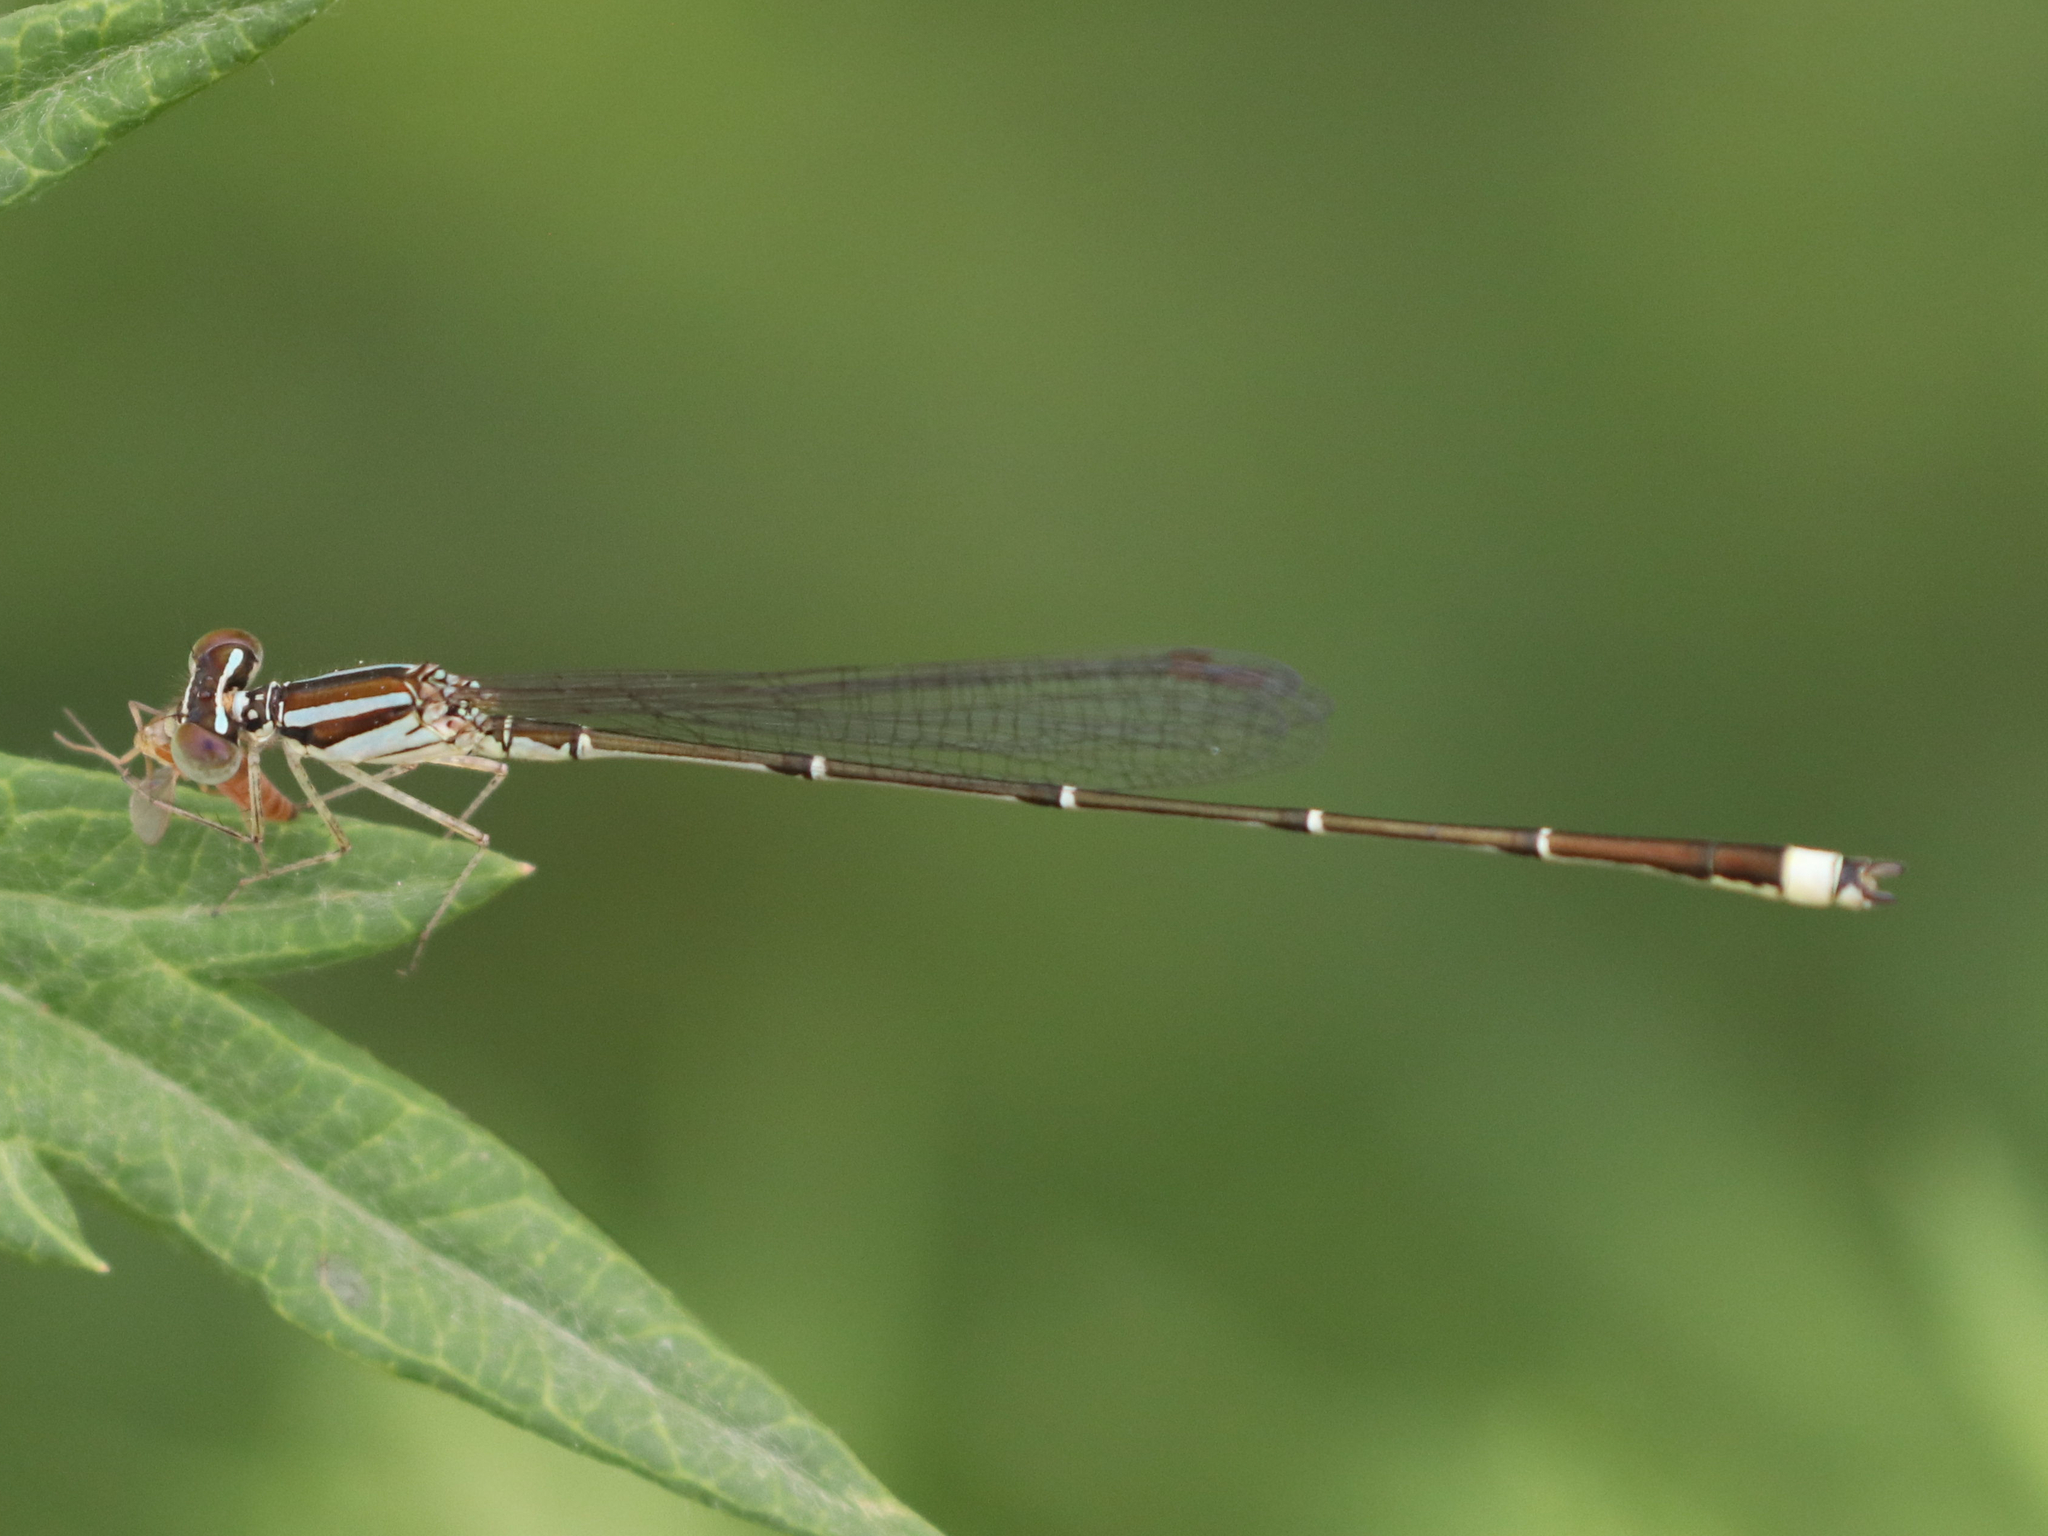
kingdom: Animalia
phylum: Arthropoda
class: Insecta
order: Odonata
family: Coenagrionidae
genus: Enallagma
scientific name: Enallagma signatum
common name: Orange bluet
